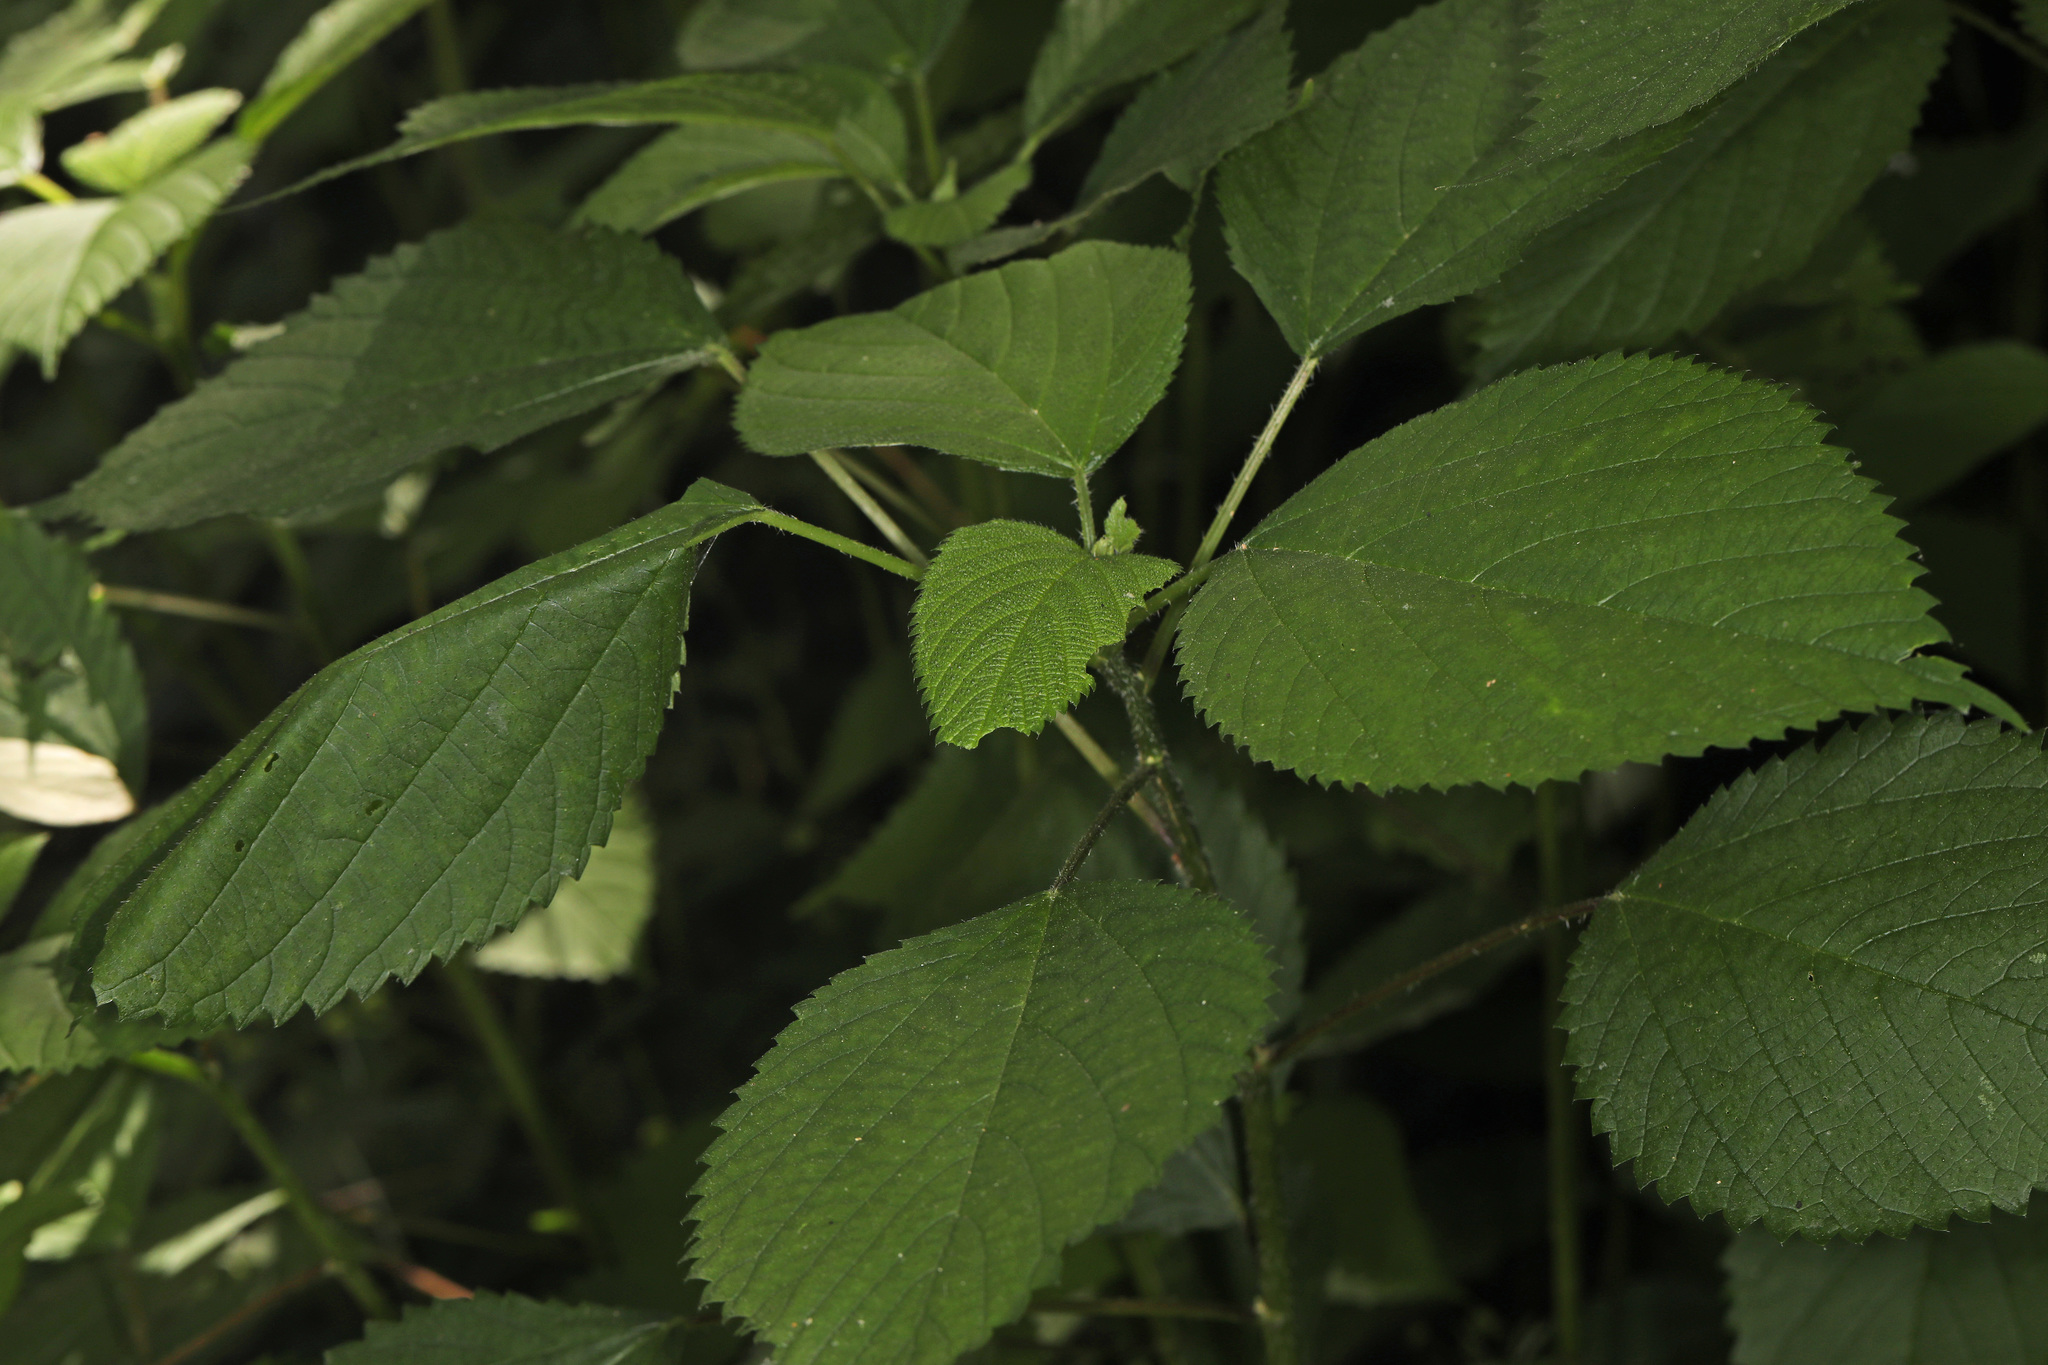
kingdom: Plantae
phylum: Tracheophyta
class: Magnoliopsida
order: Rosales
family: Urticaceae
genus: Laportea
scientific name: Laportea canadensis
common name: Canada nettle
